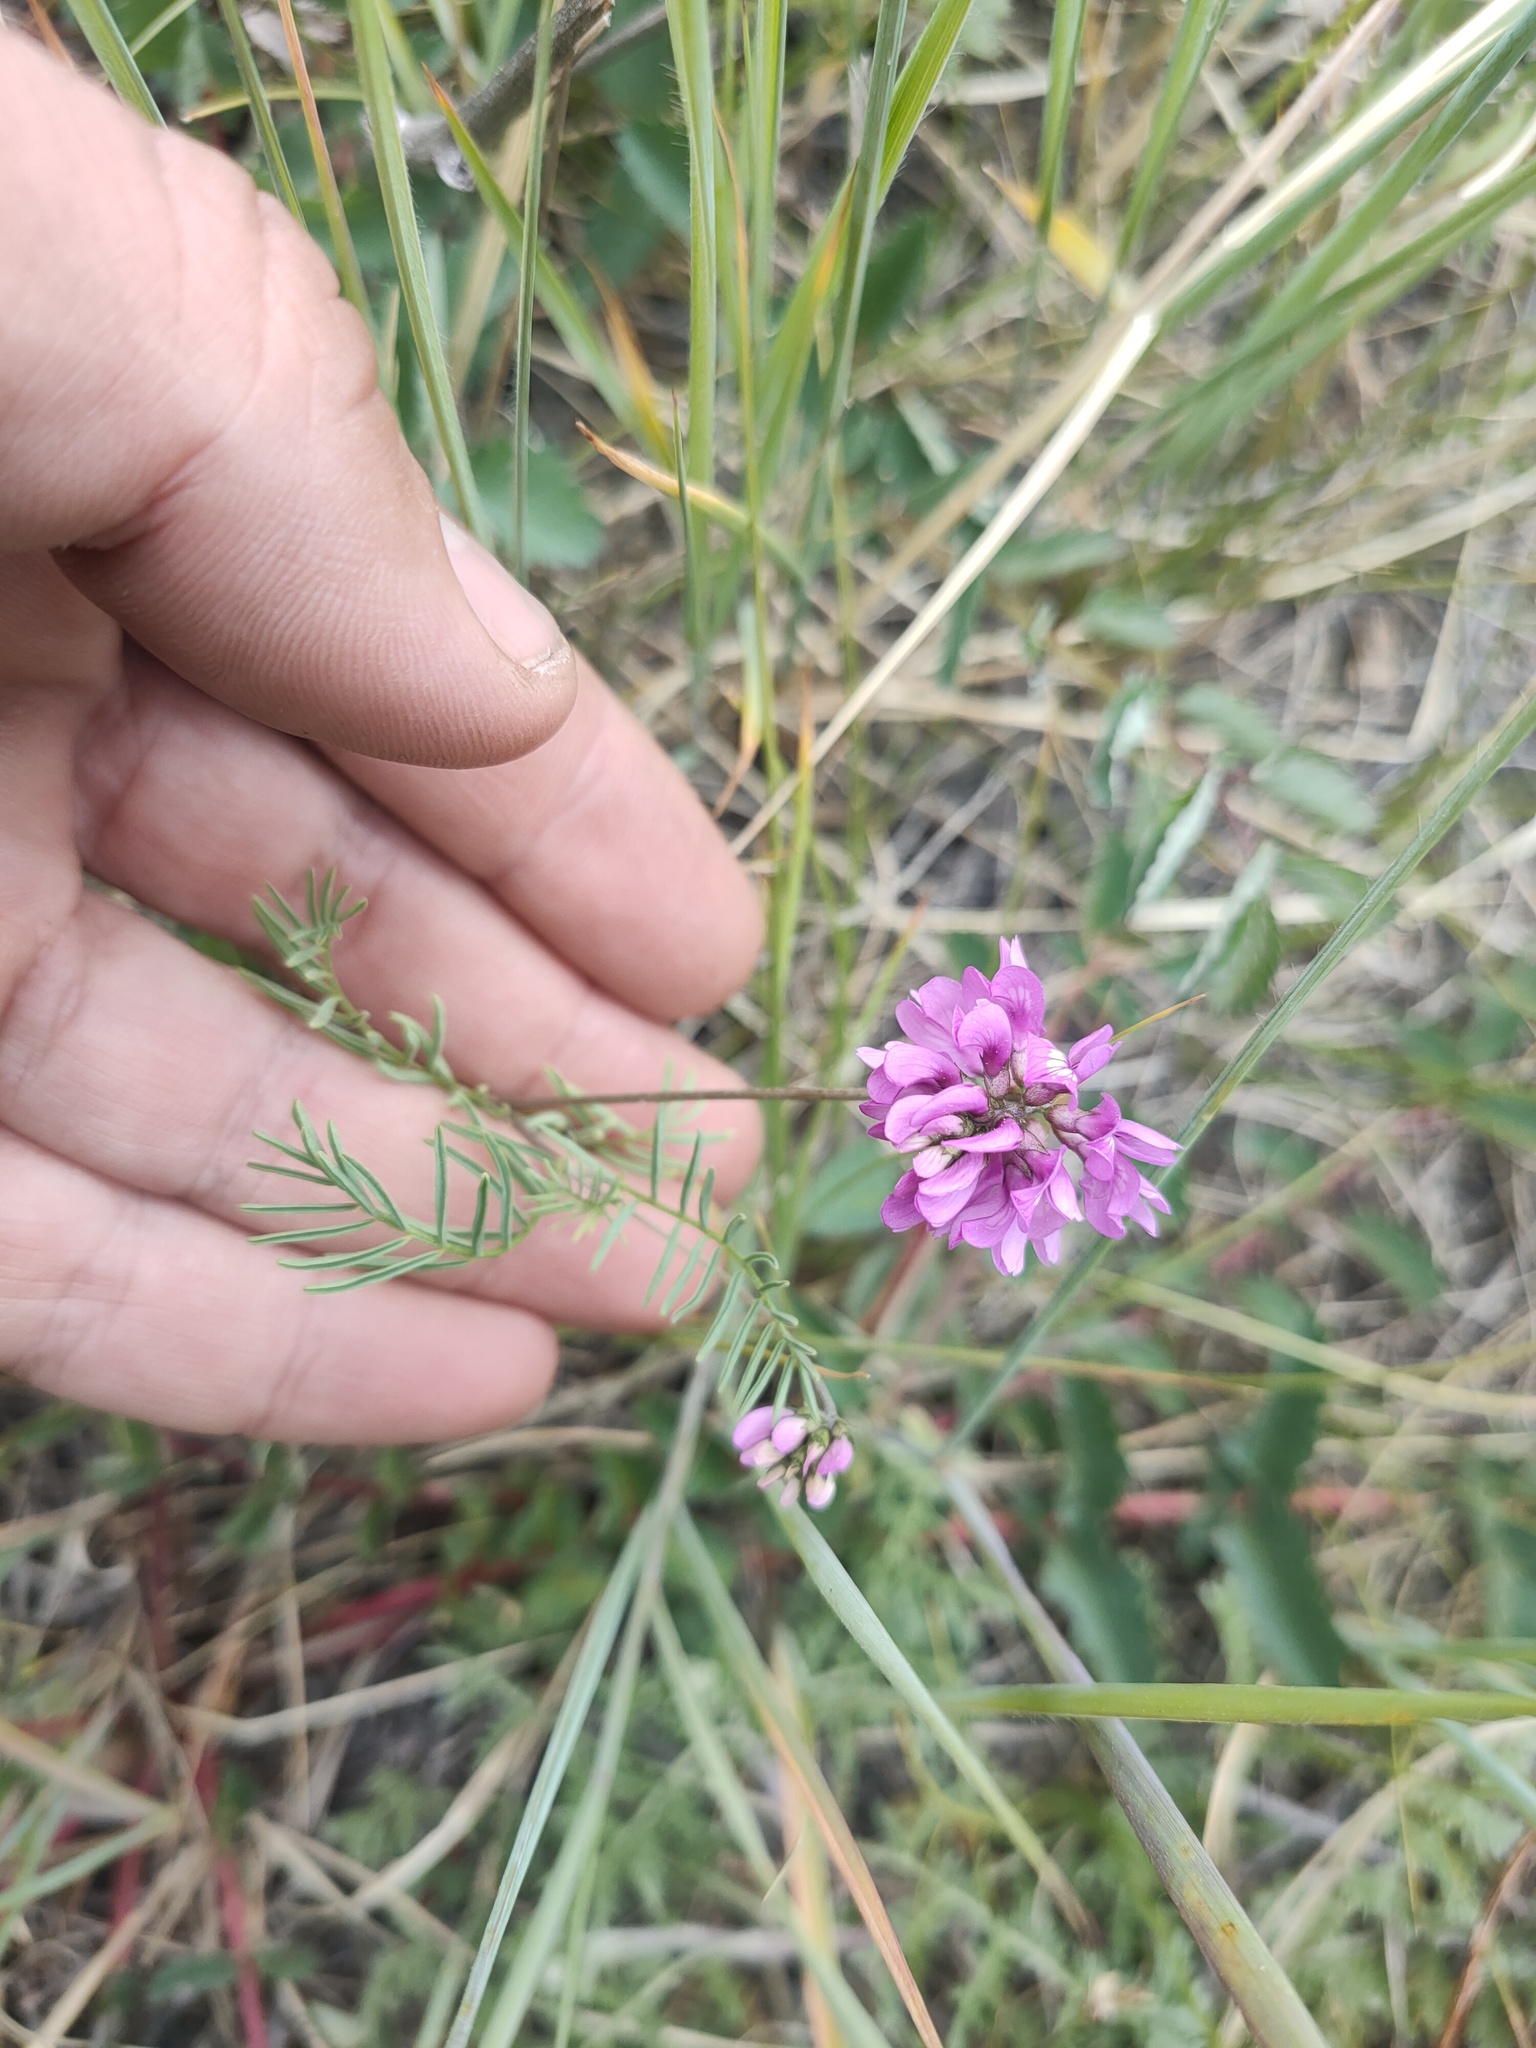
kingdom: Plantae
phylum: Tracheophyta
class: Magnoliopsida
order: Fabales
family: Fabaceae
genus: Astragalus
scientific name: Astragalus versicolor
